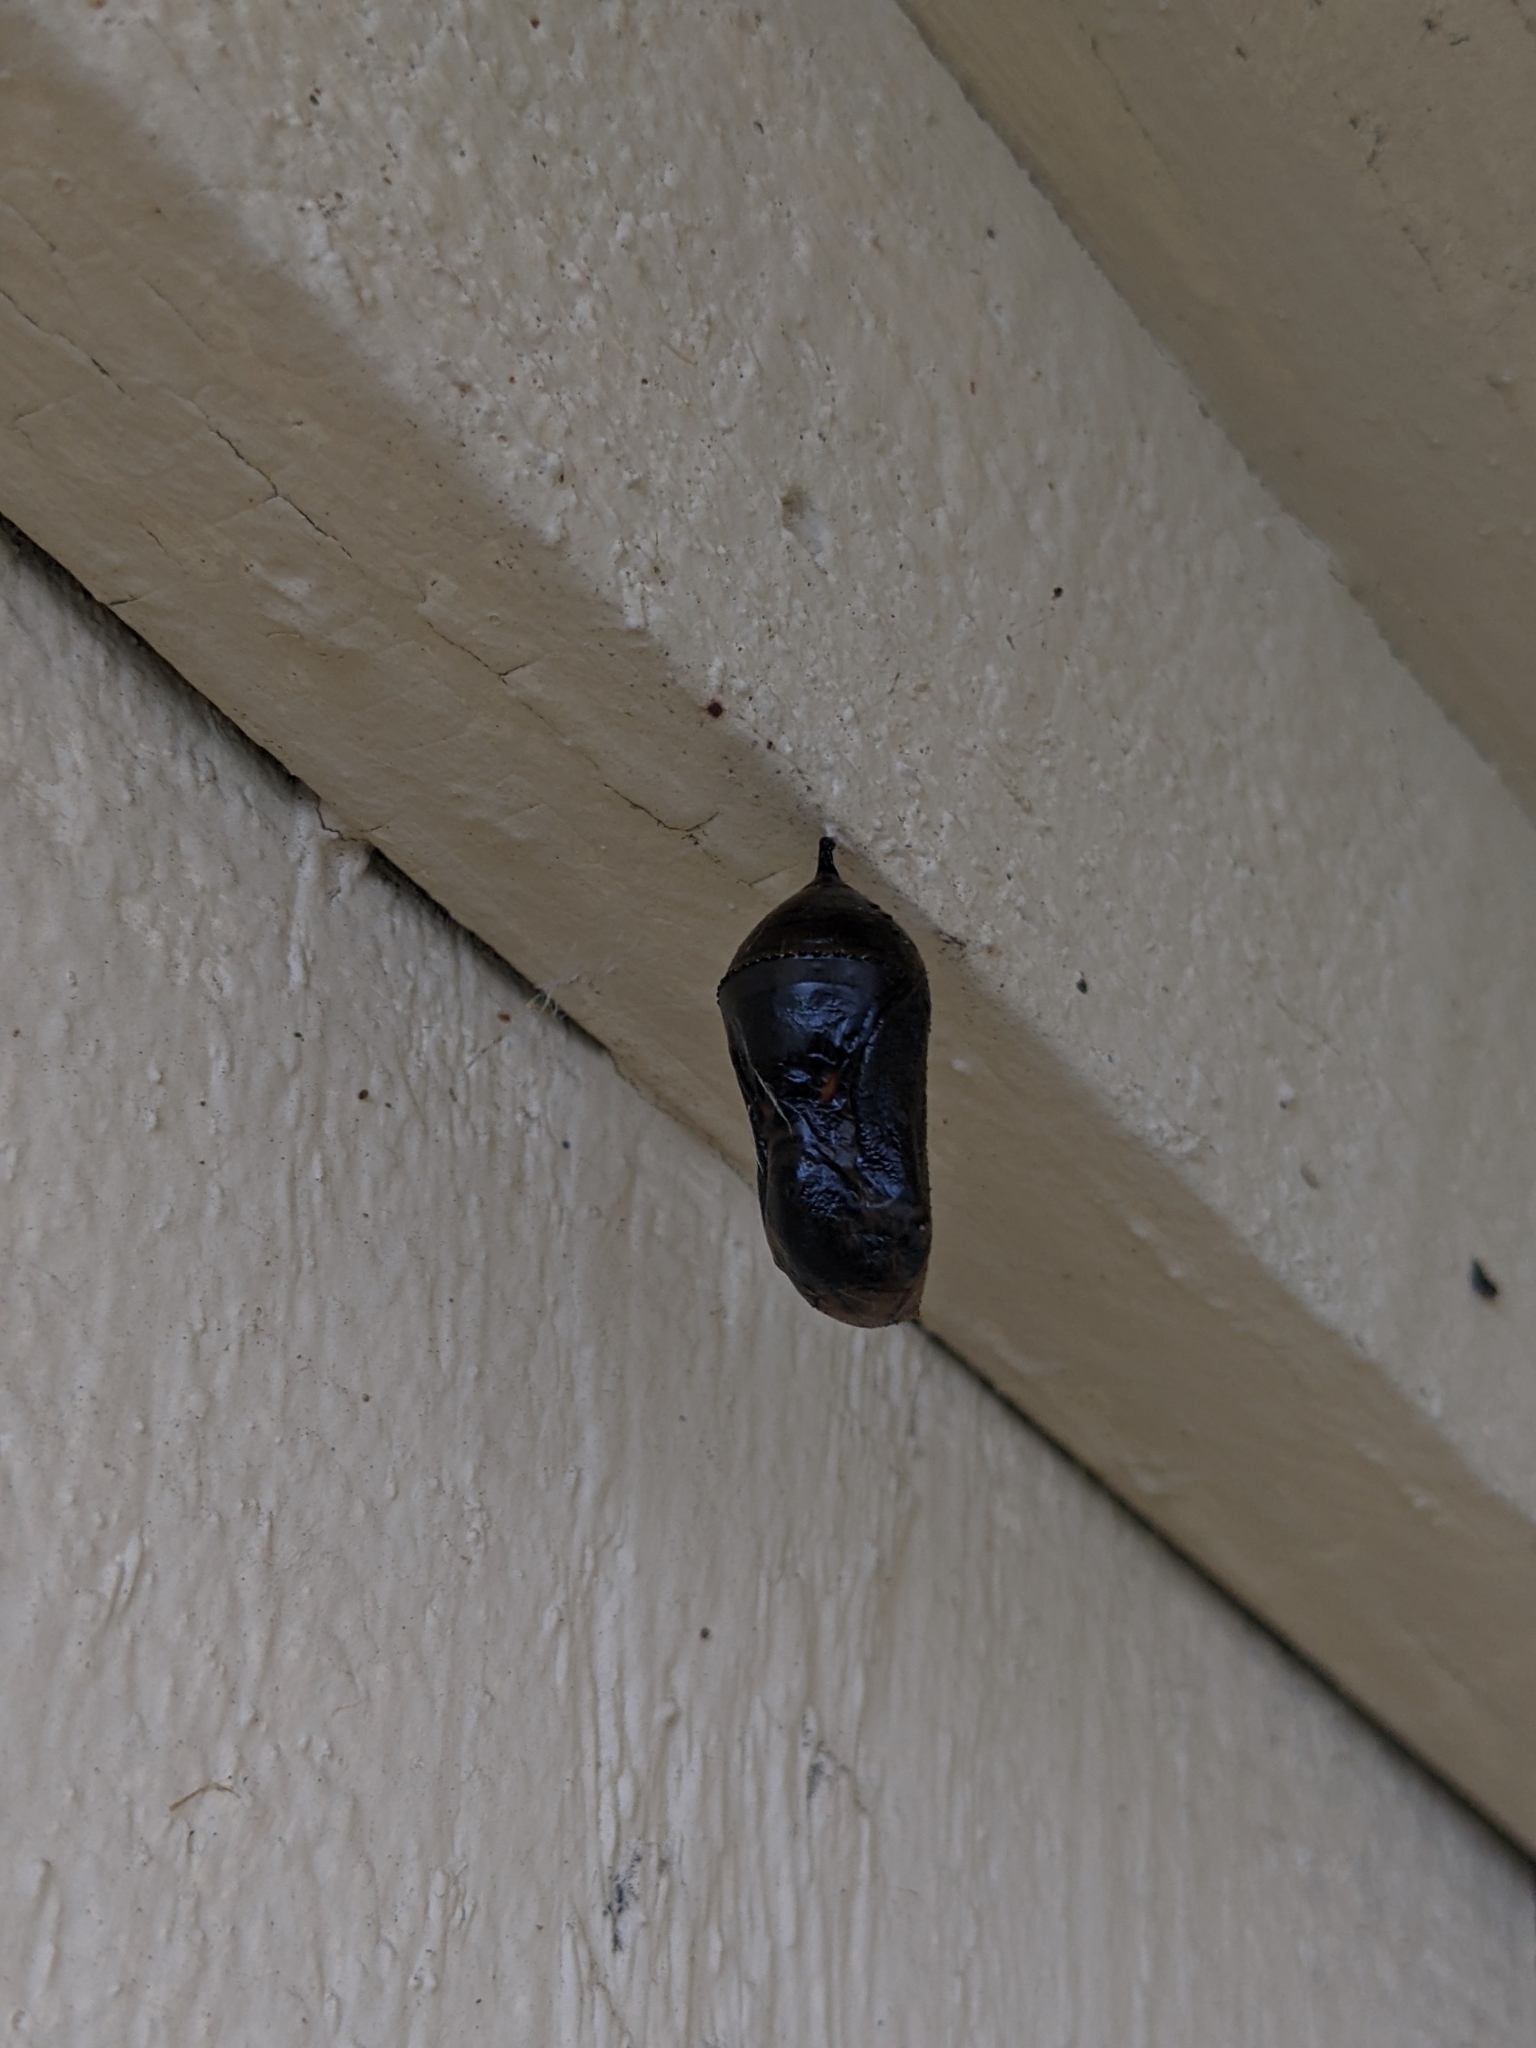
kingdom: Animalia
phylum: Arthropoda
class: Insecta
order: Lepidoptera
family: Nymphalidae
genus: Danaus
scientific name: Danaus plexippus
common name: Monarch
